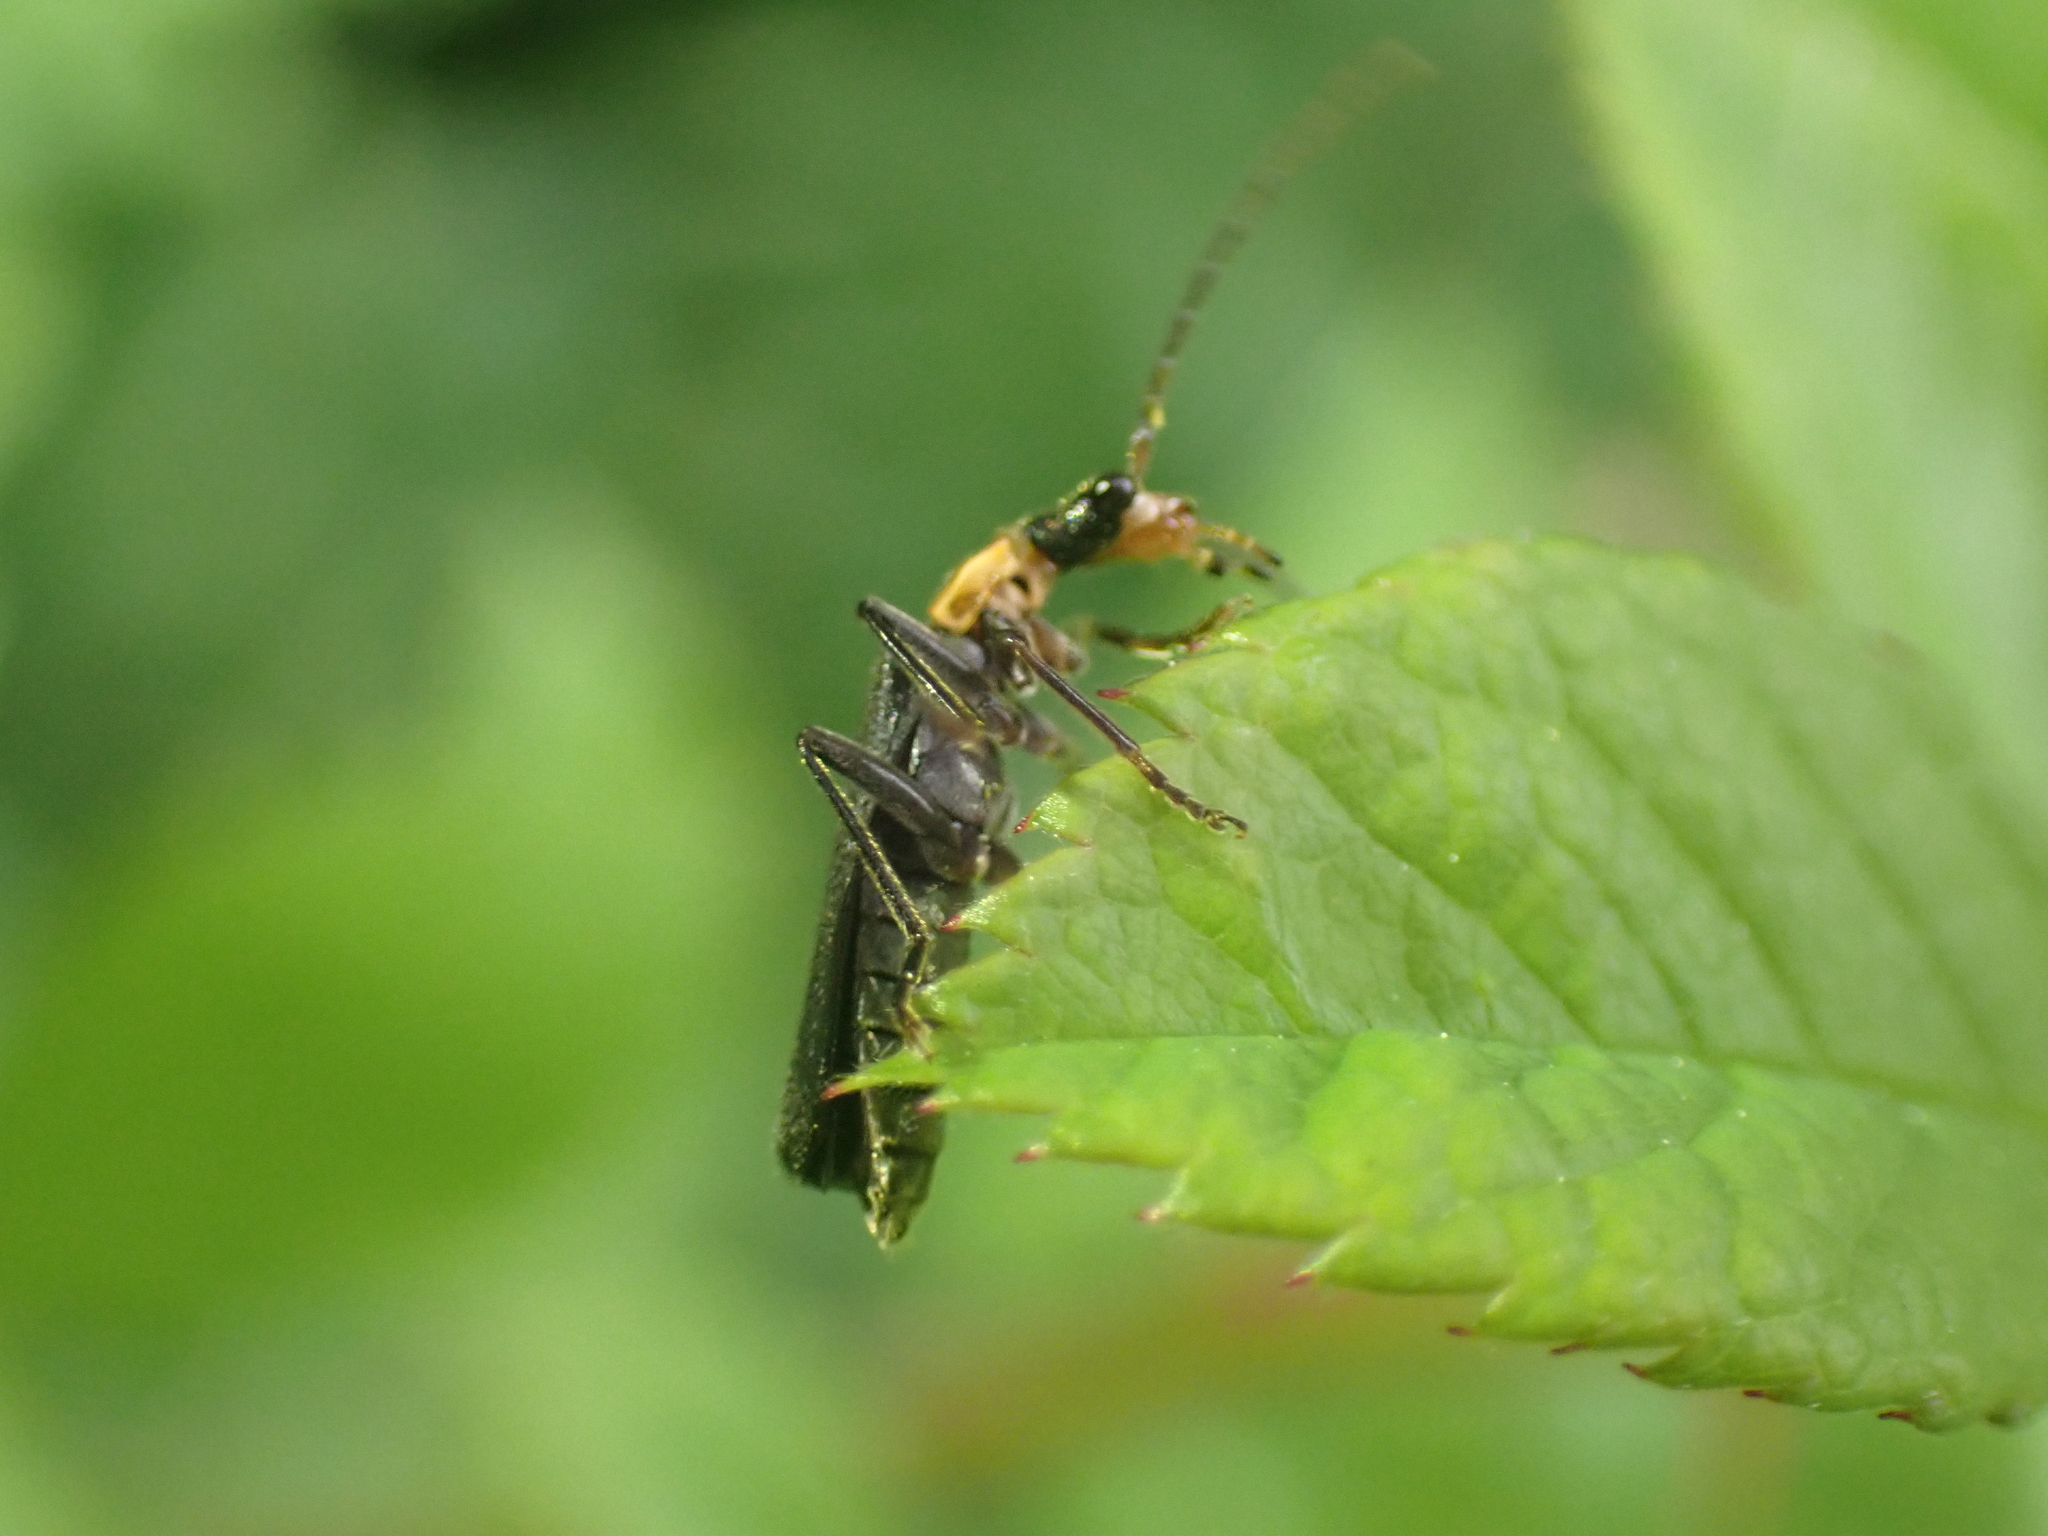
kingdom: Animalia
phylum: Arthropoda
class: Insecta
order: Coleoptera
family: Cantharidae
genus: Podabrus
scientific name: Podabrus rugosulus
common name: Wrinkled soldier beetle
